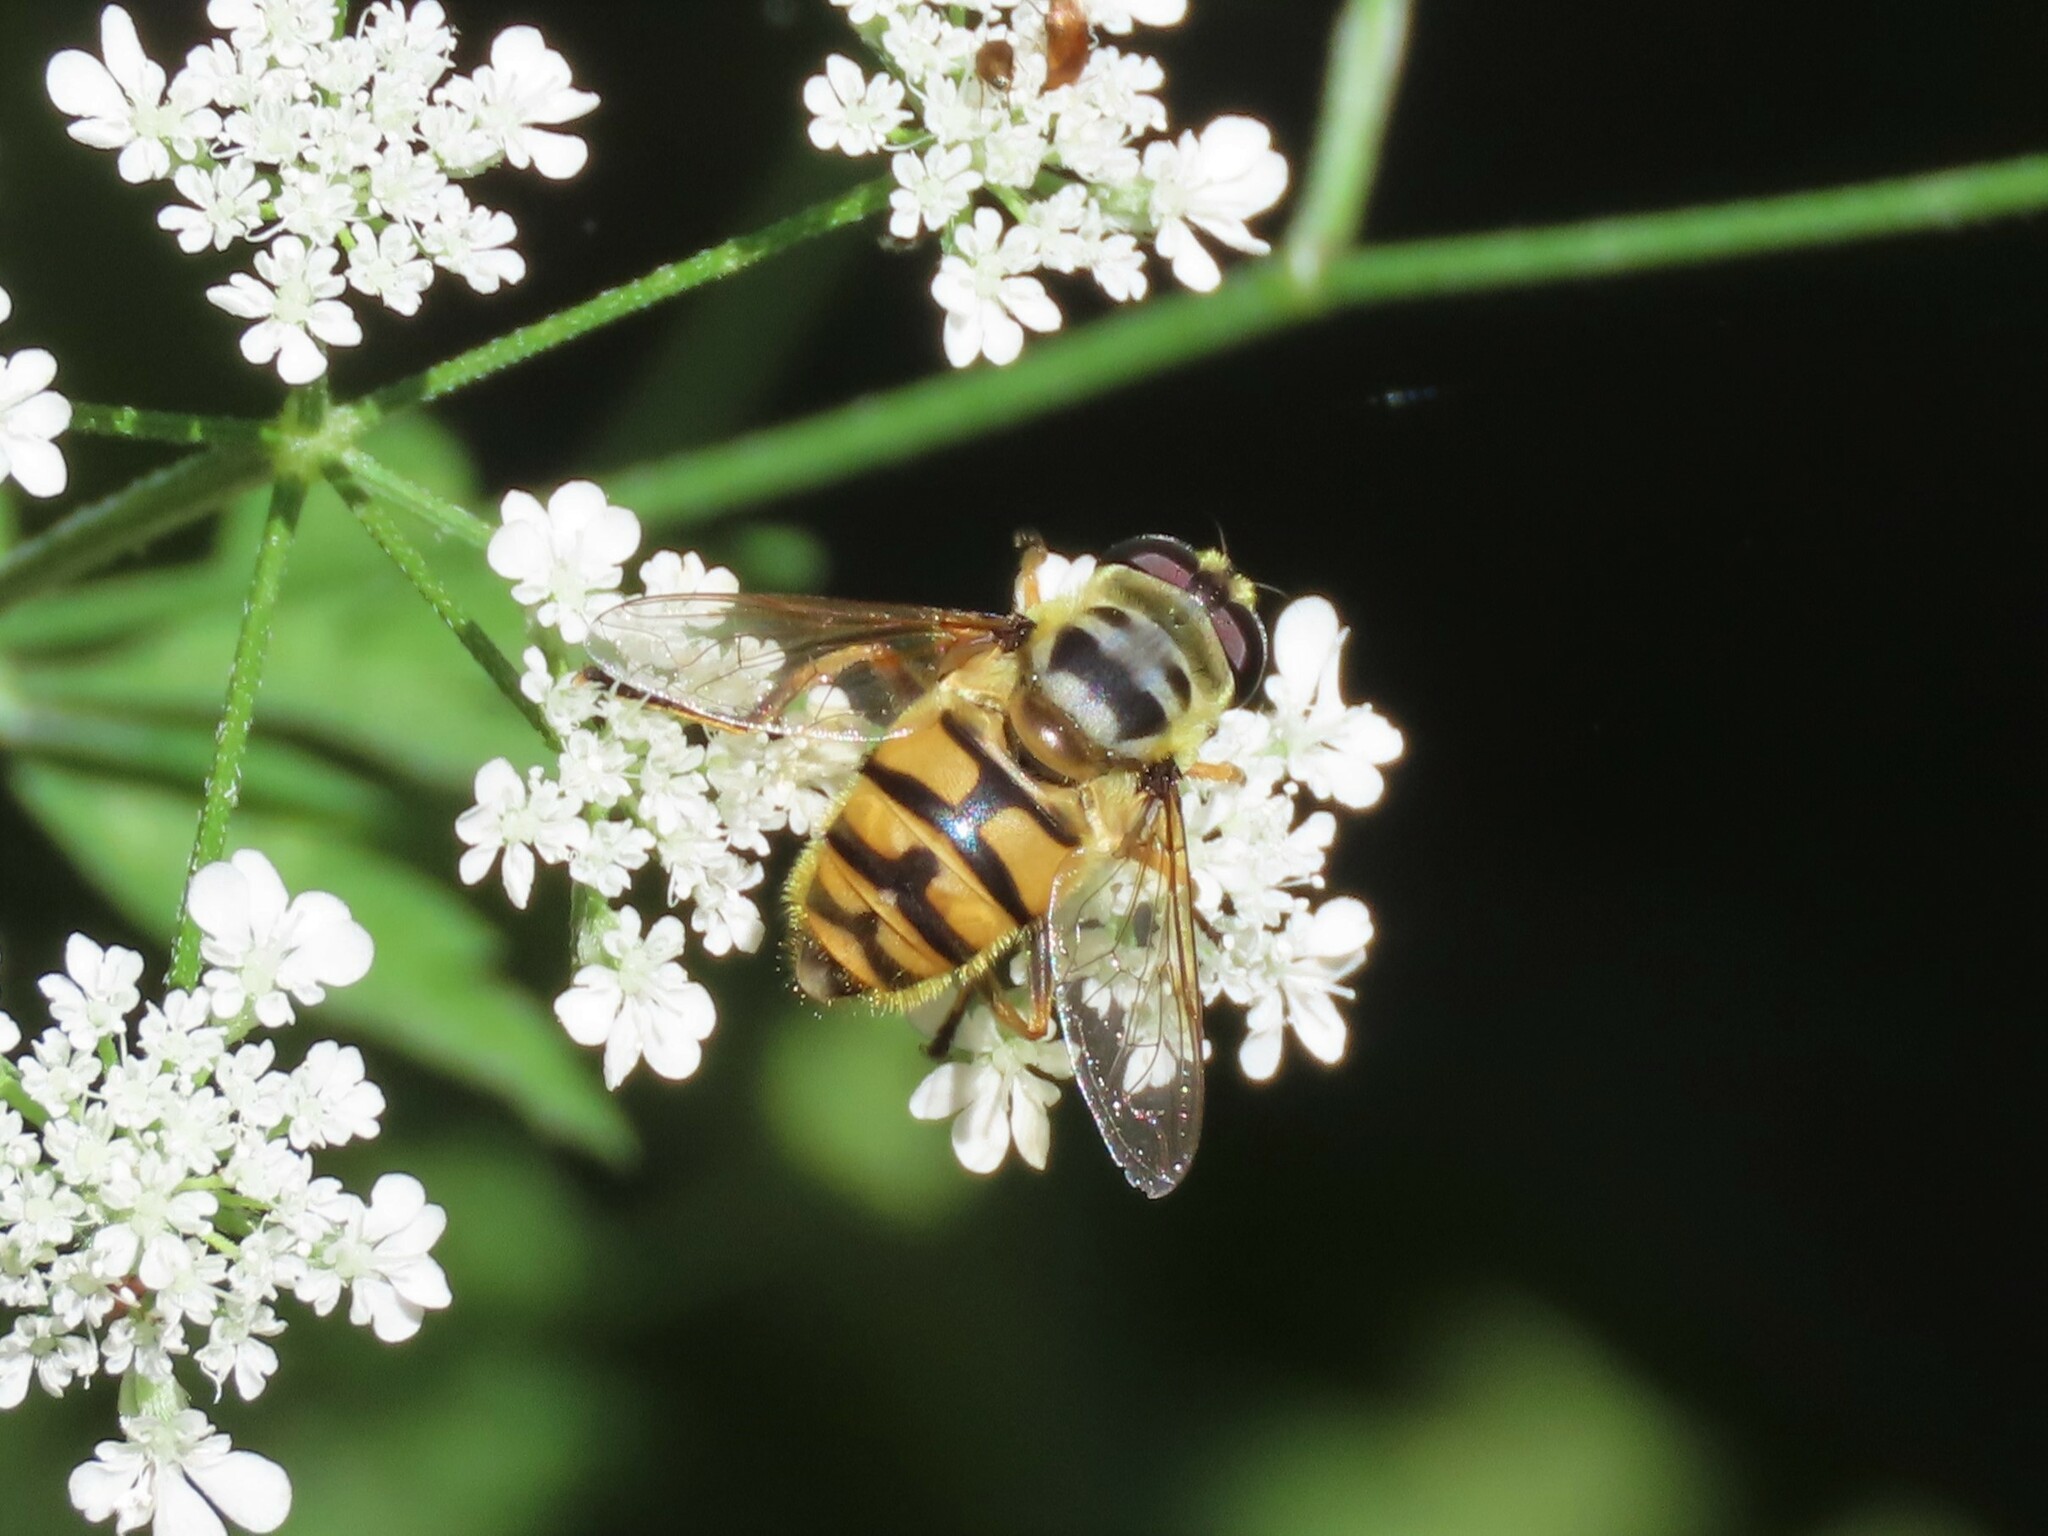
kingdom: Animalia
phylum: Arthropoda
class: Insecta
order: Diptera
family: Syrphidae
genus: Myathropa
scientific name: Myathropa florea
